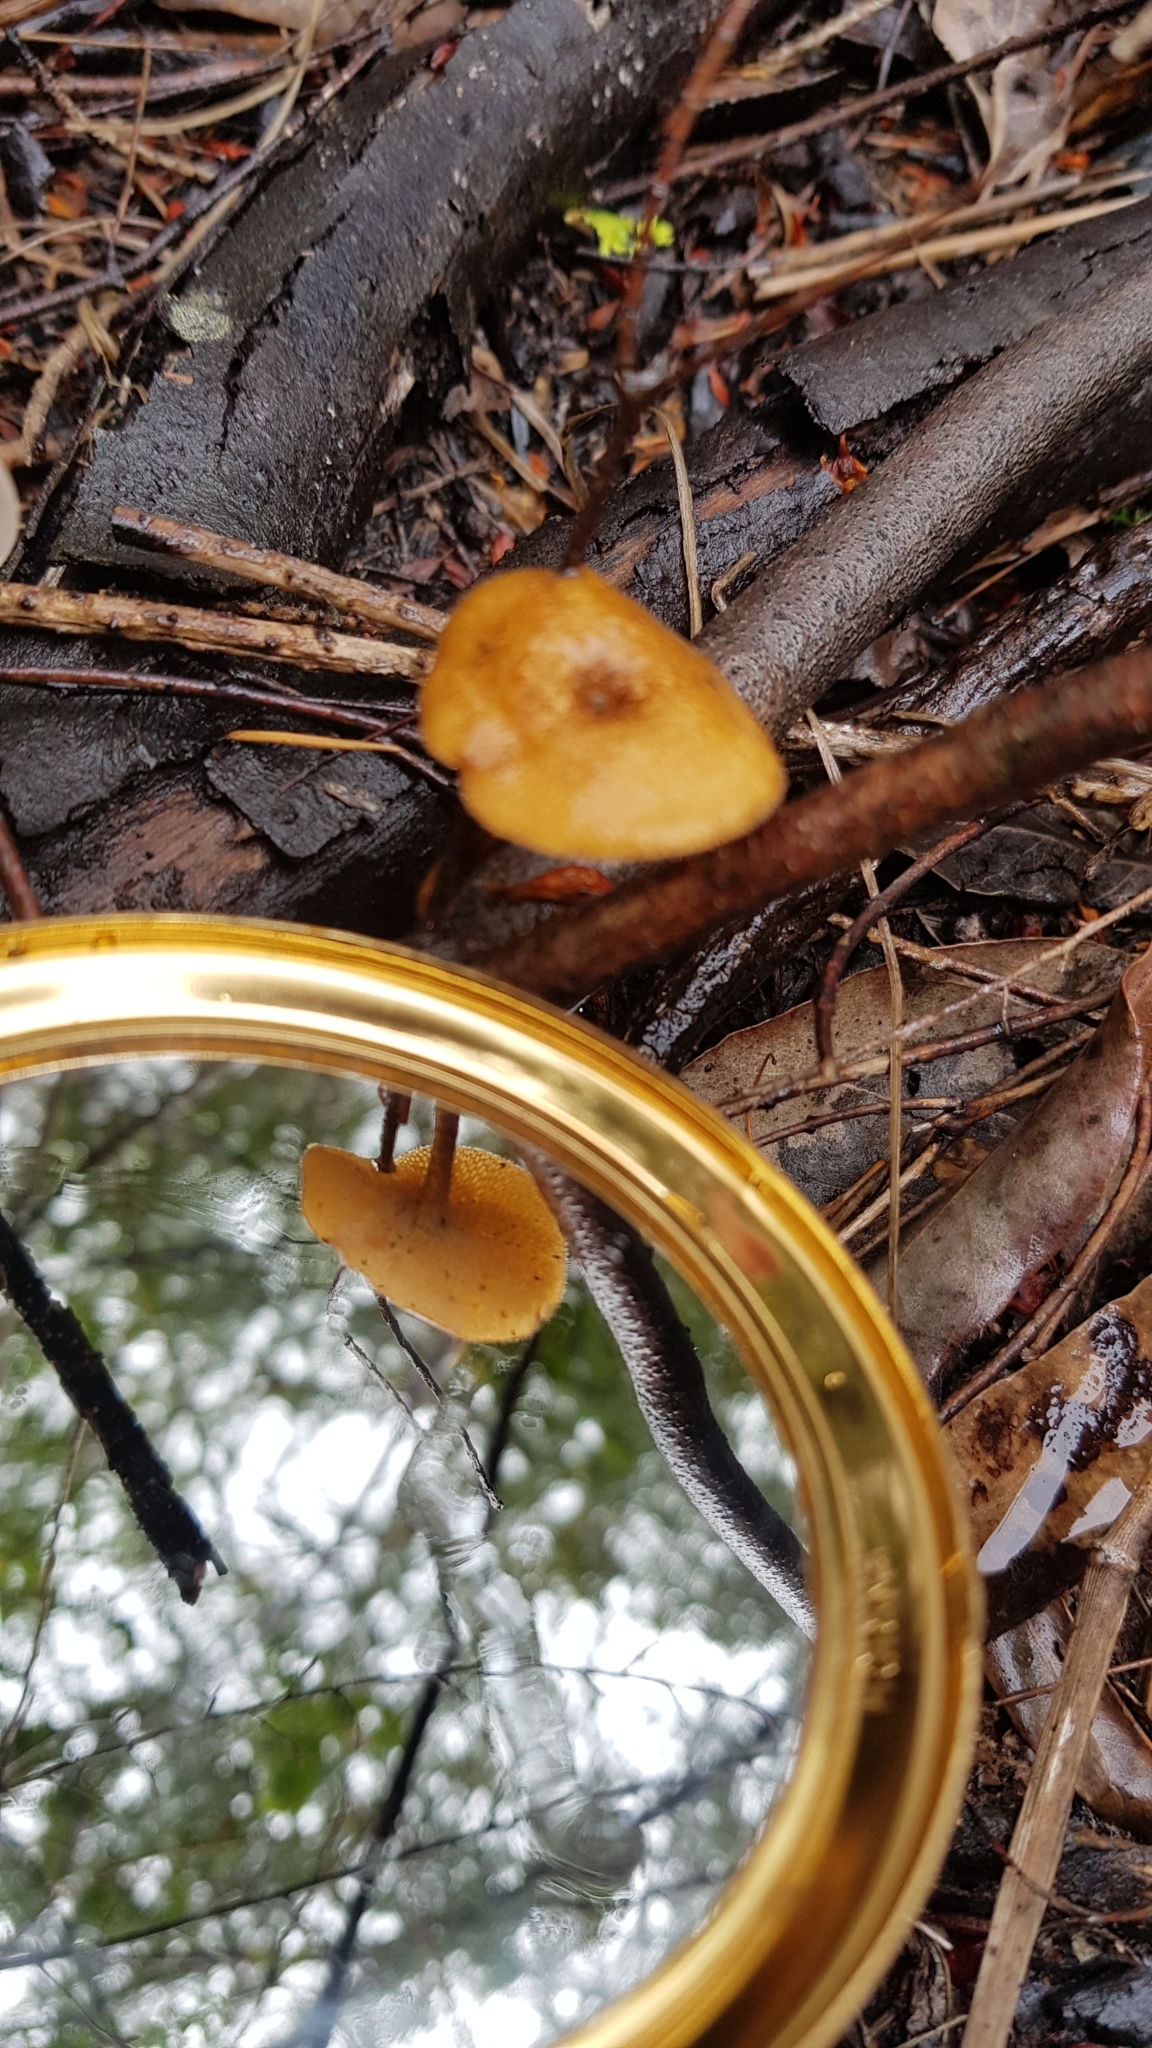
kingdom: Fungi
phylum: Basidiomycota
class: Agaricomycetes
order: Polyporales
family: Polyporaceae
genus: Lentinus
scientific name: Lentinus arcularius
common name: Spring polypore
